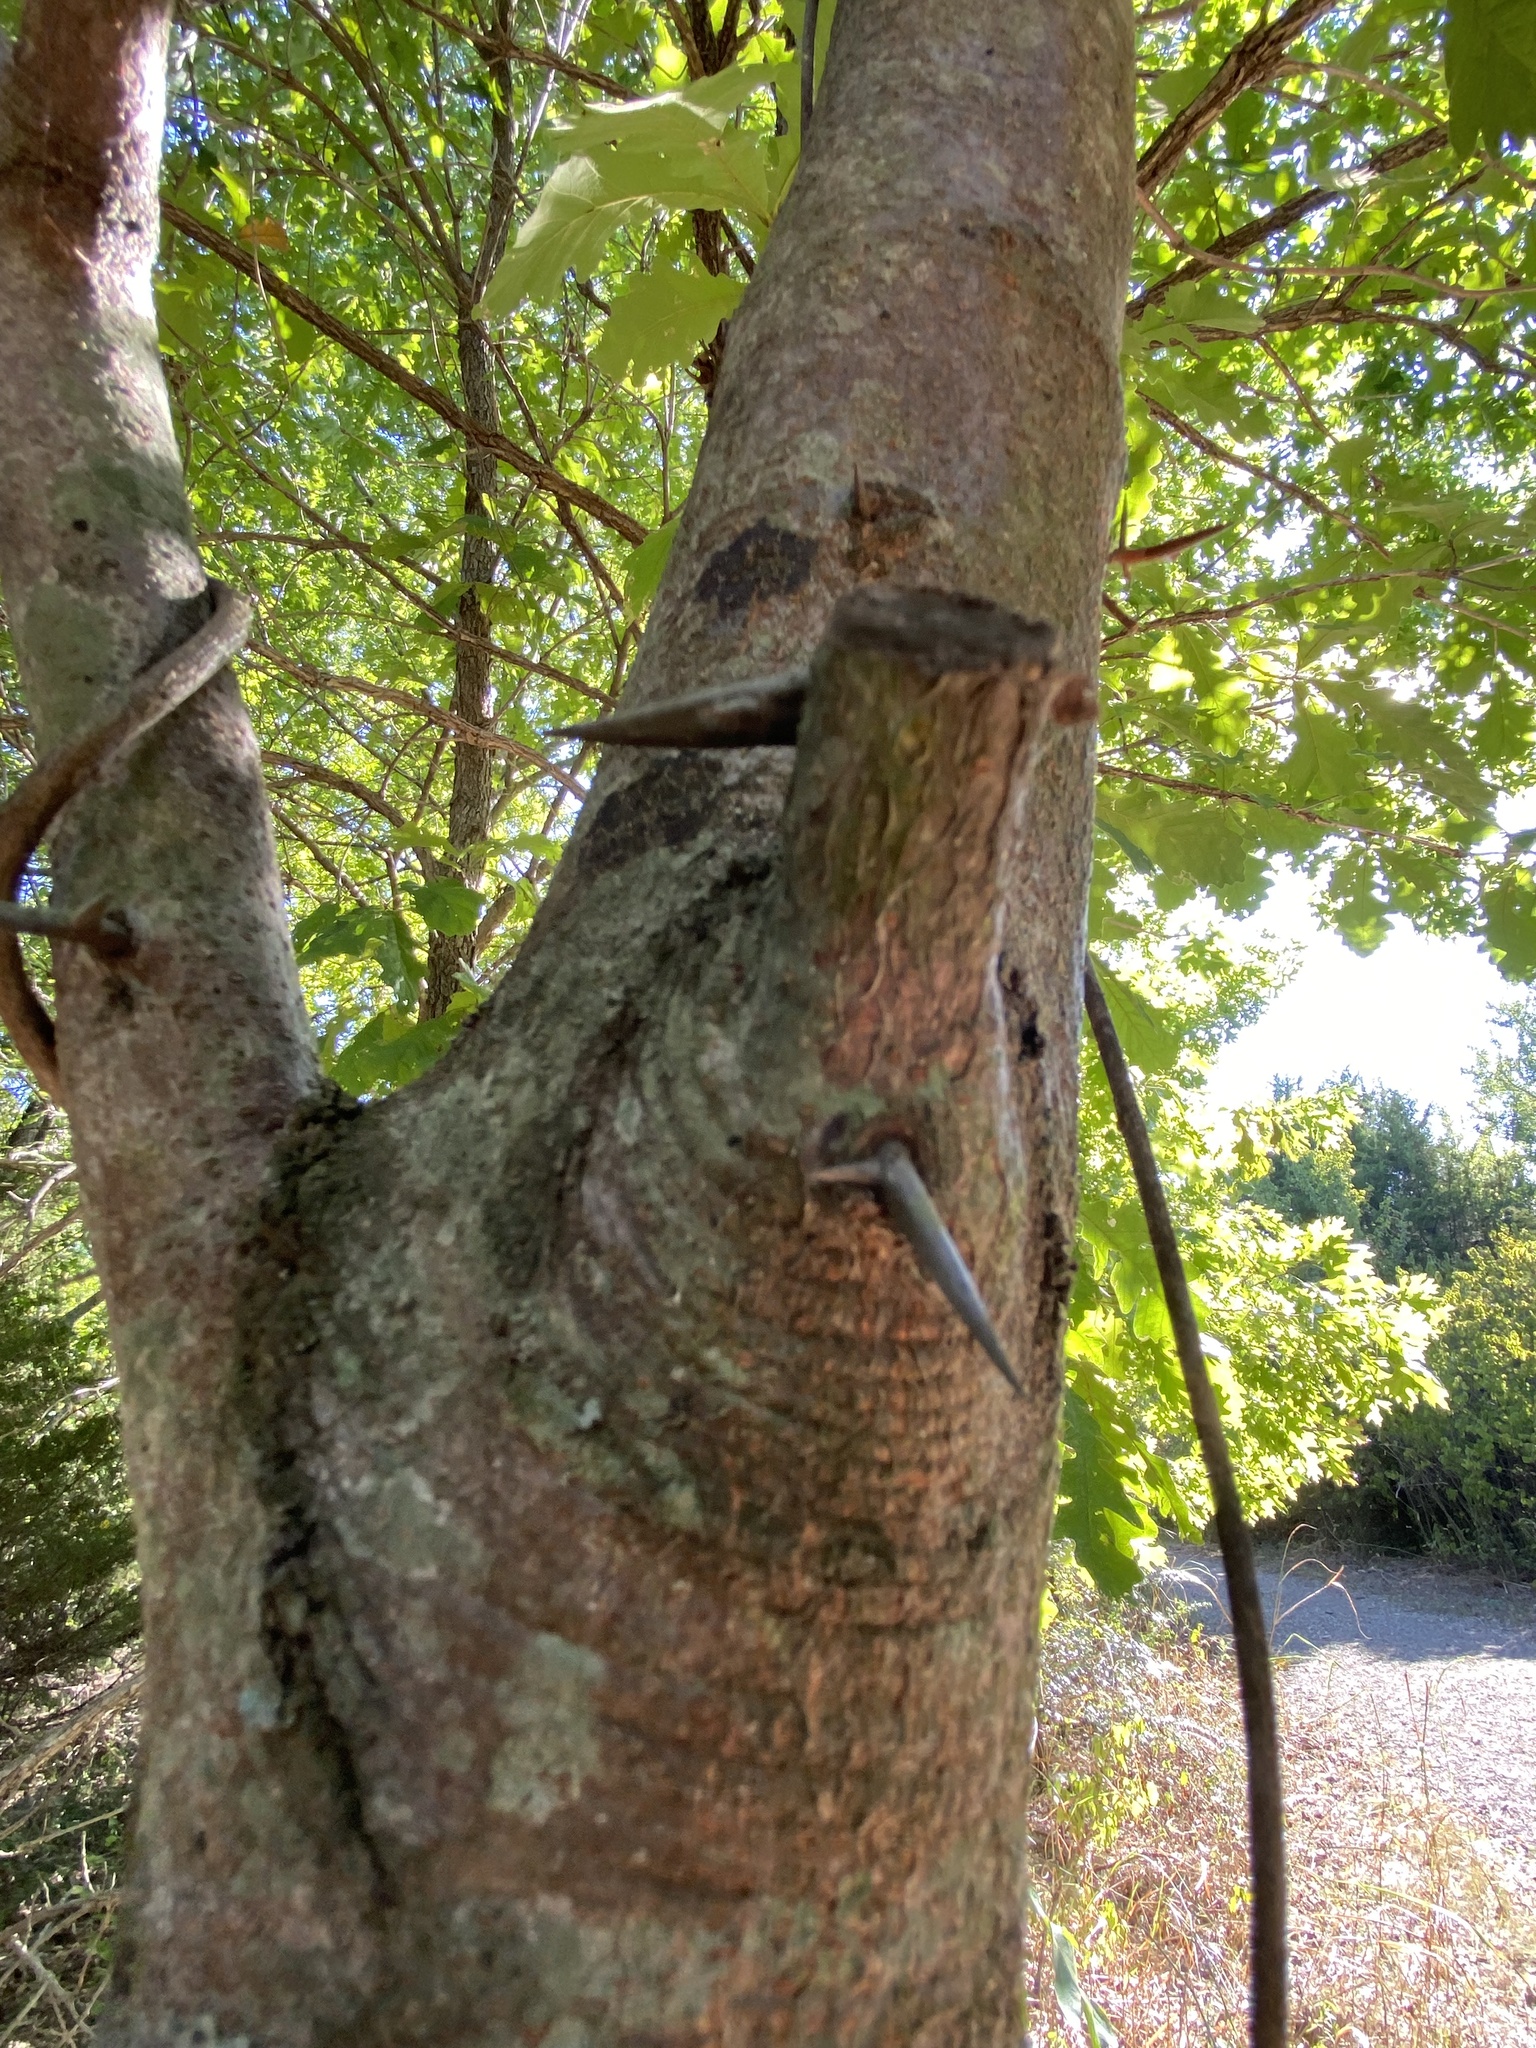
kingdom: Plantae
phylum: Tracheophyta
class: Magnoliopsida
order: Fabales
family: Fabaceae
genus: Gleditsia
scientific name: Gleditsia triacanthos
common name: Common honeylocust
